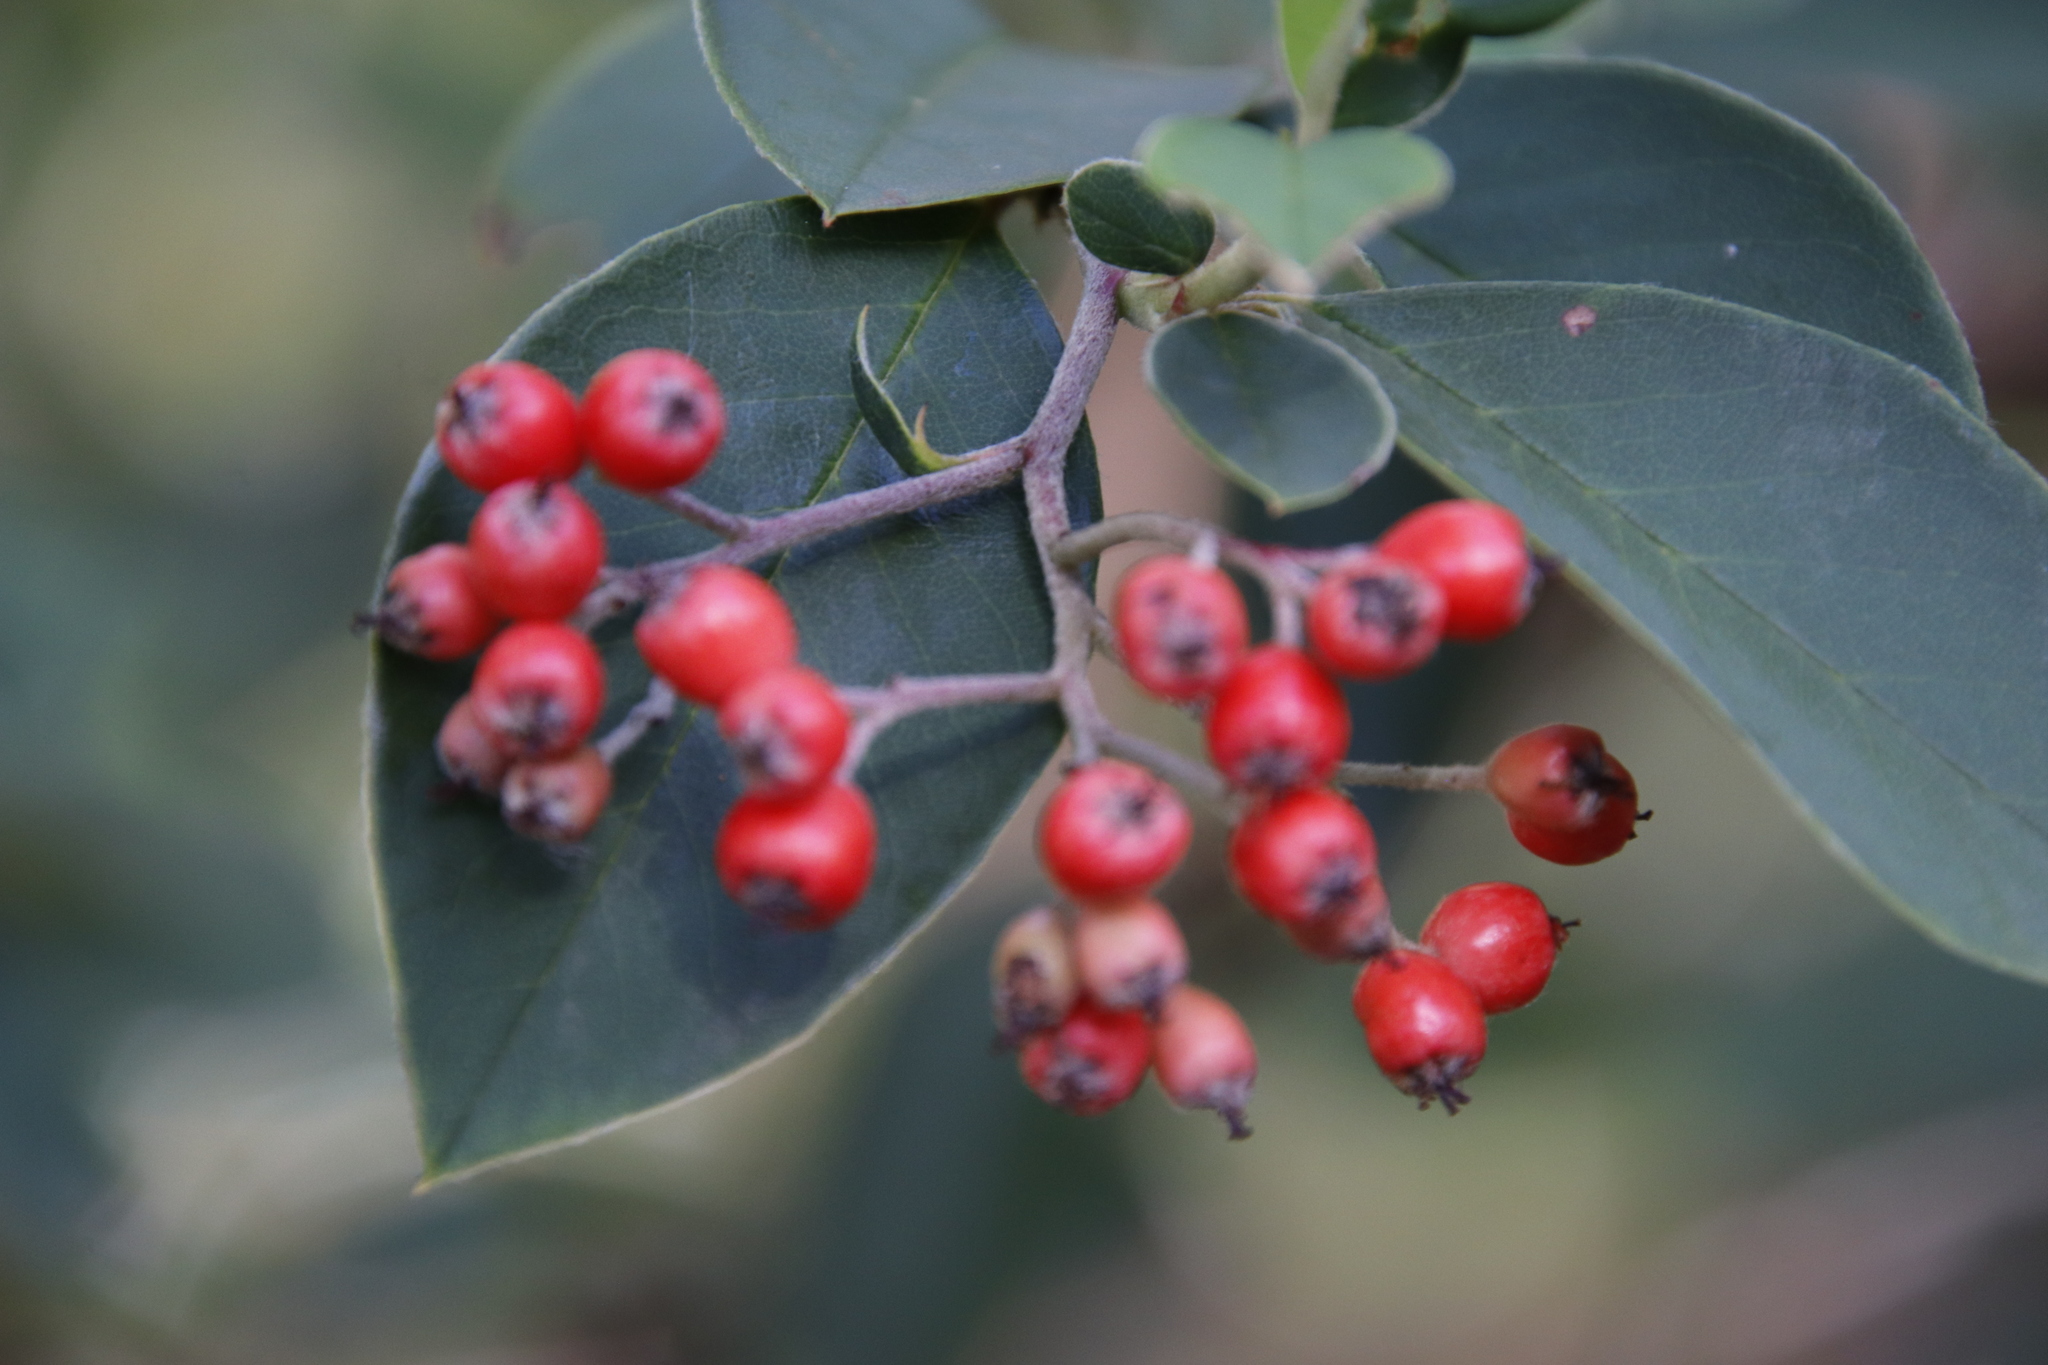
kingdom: Plantae
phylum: Tracheophyta
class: Magnoliopsida
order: Rosales
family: Rosaceae
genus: Cotoneaster
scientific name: Cotoneaster glaucophyllus
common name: Glaucous cotoneaster
